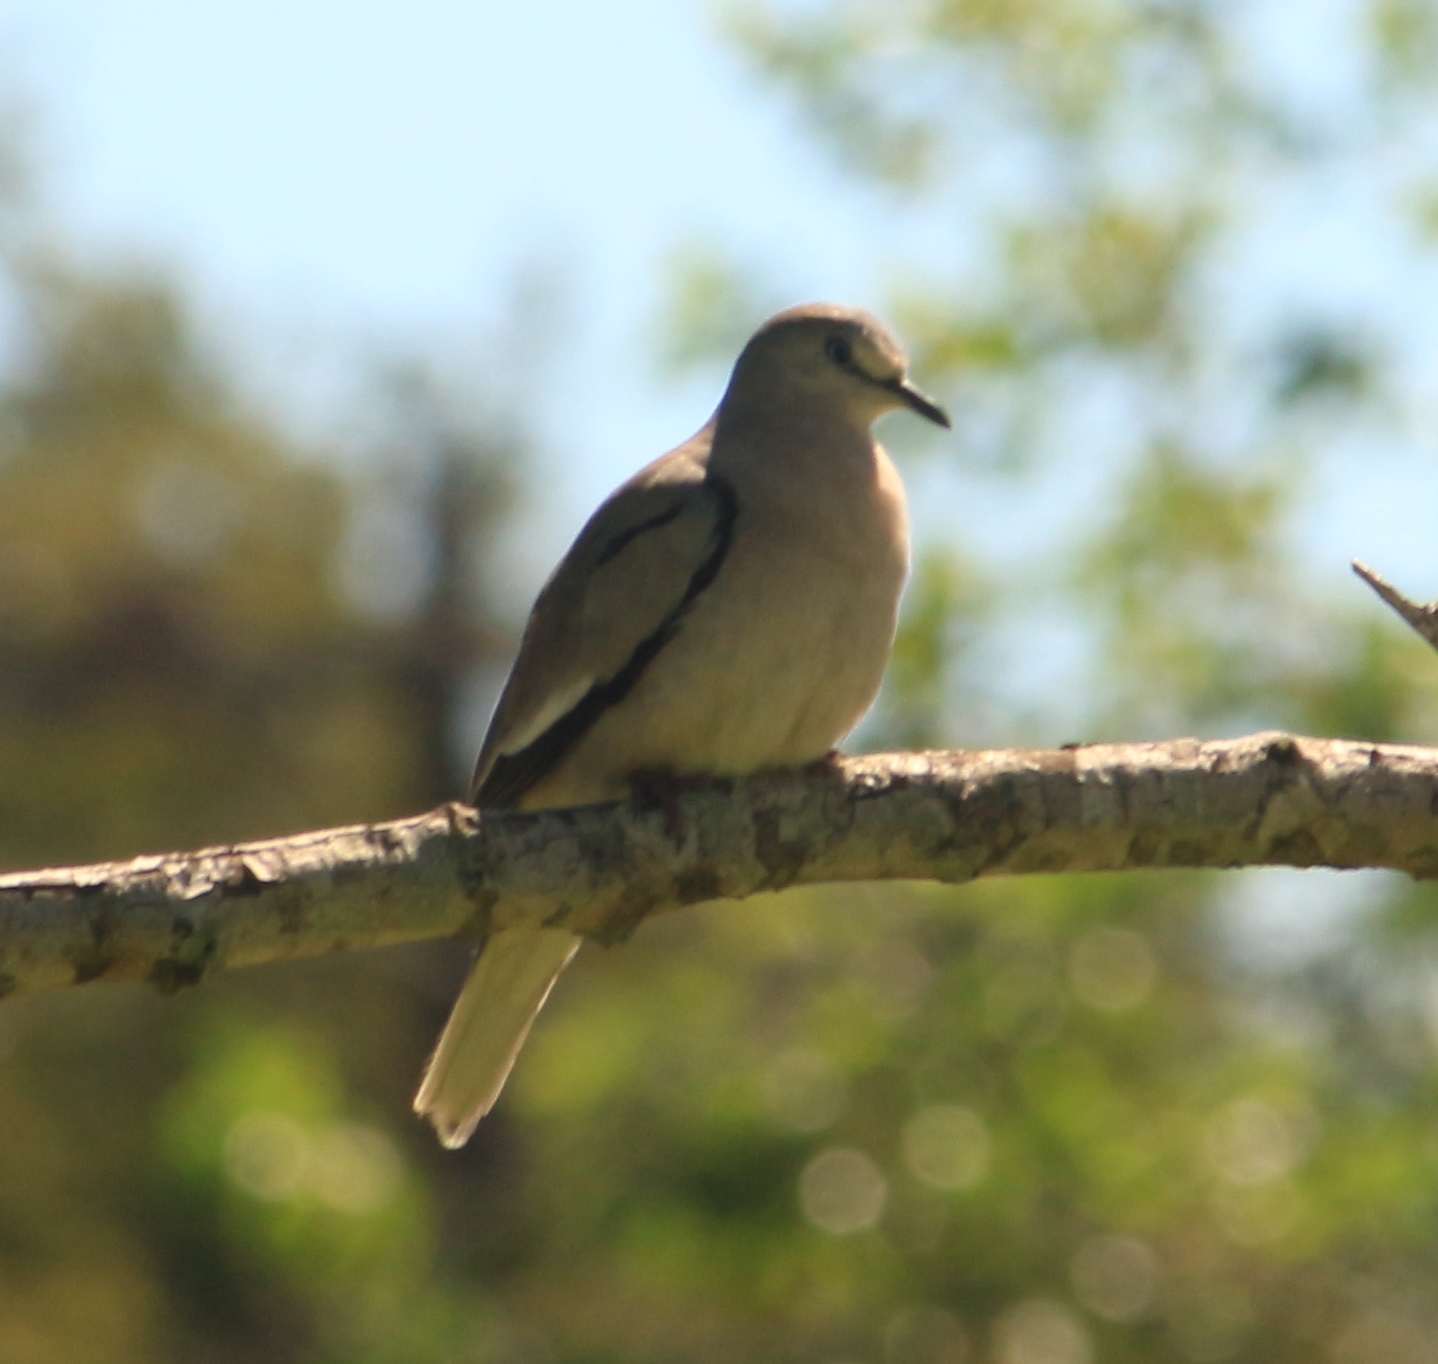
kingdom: Animalia
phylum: Chordata
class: Aves
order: Columbiformes
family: Columbidae
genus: Columbina
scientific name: Columbina picui
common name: Picui ground dove
